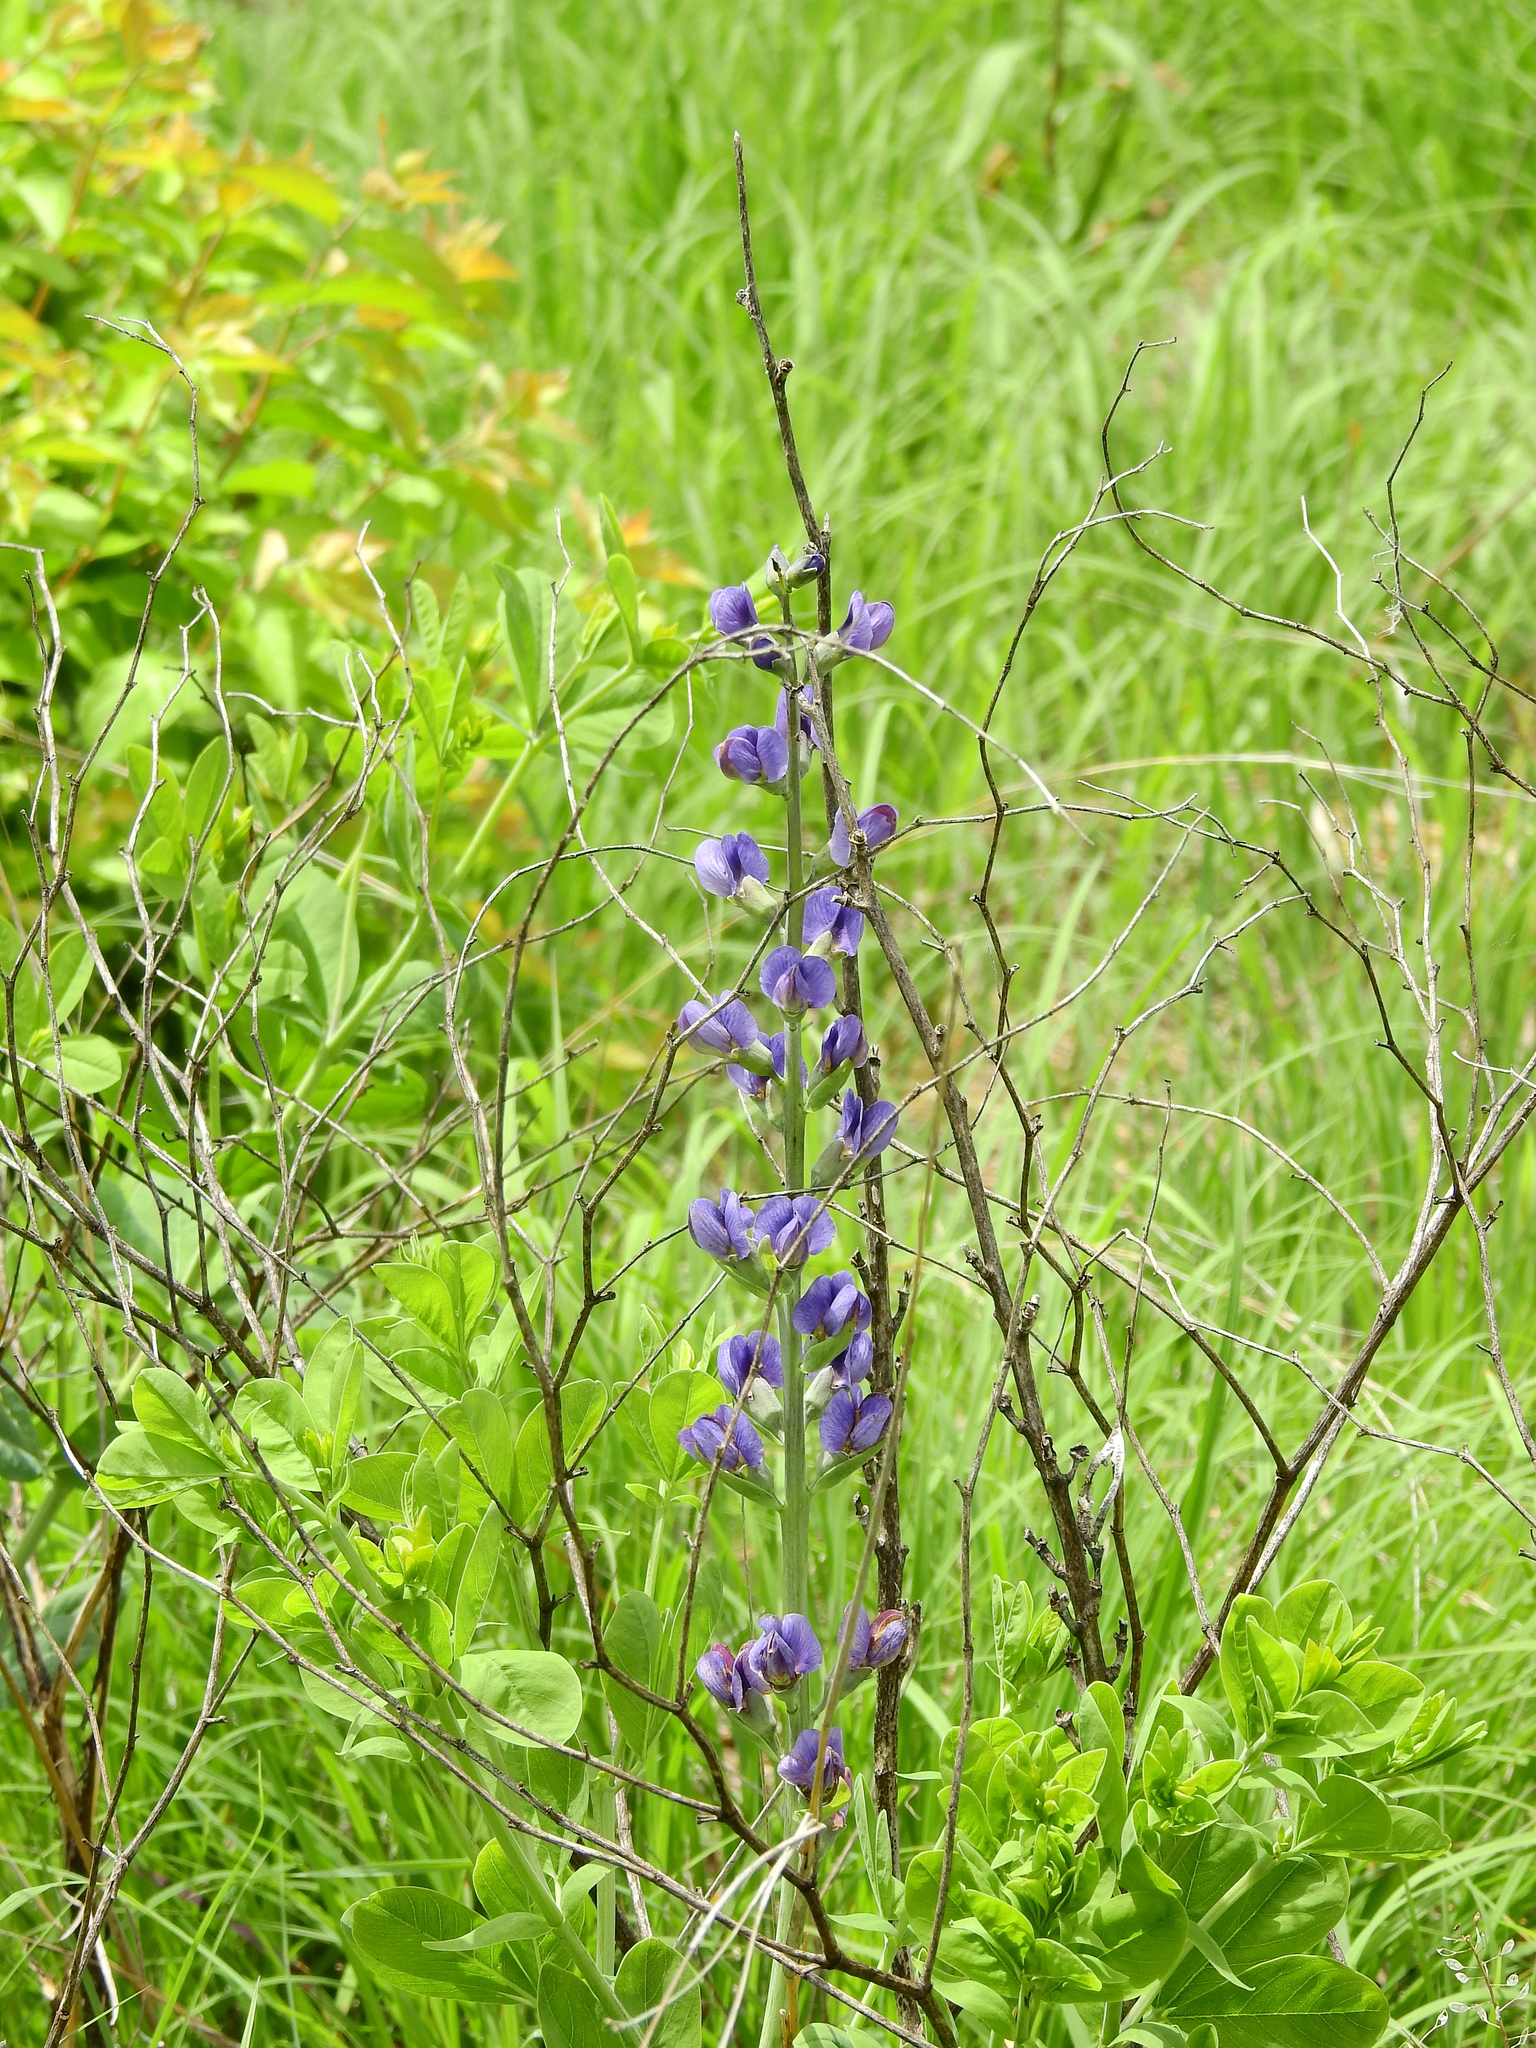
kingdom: Plantae
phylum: Tracheophyta
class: Magnoliopsida
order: Fabales
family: Fabaceae
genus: Baptisia
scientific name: Baptisia australis
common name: Blue false indigo
